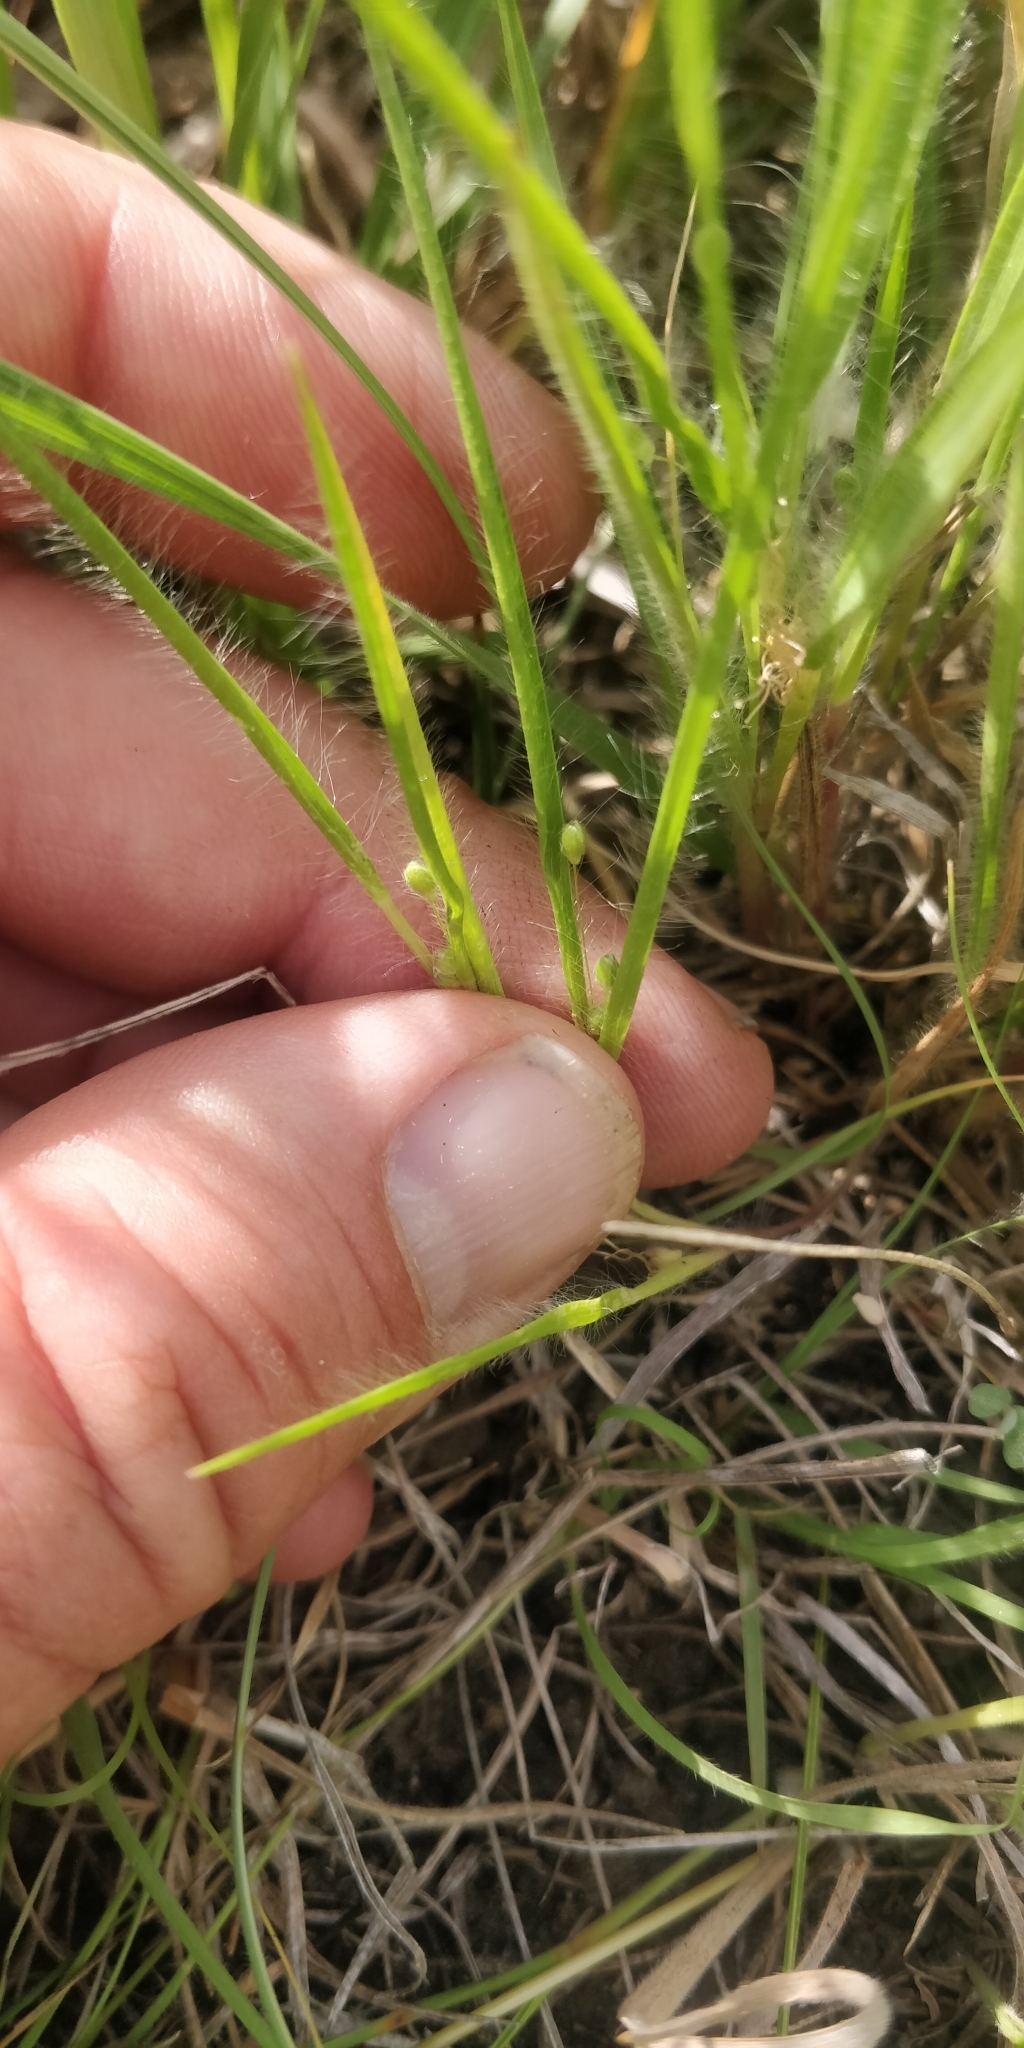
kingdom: Plantae
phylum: Tracheophyta
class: Liliopsida
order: Poales
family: Poaceae
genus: Dichanthelium
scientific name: Dichanthelium wilcoxianum
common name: Wilcox's panicgrass
